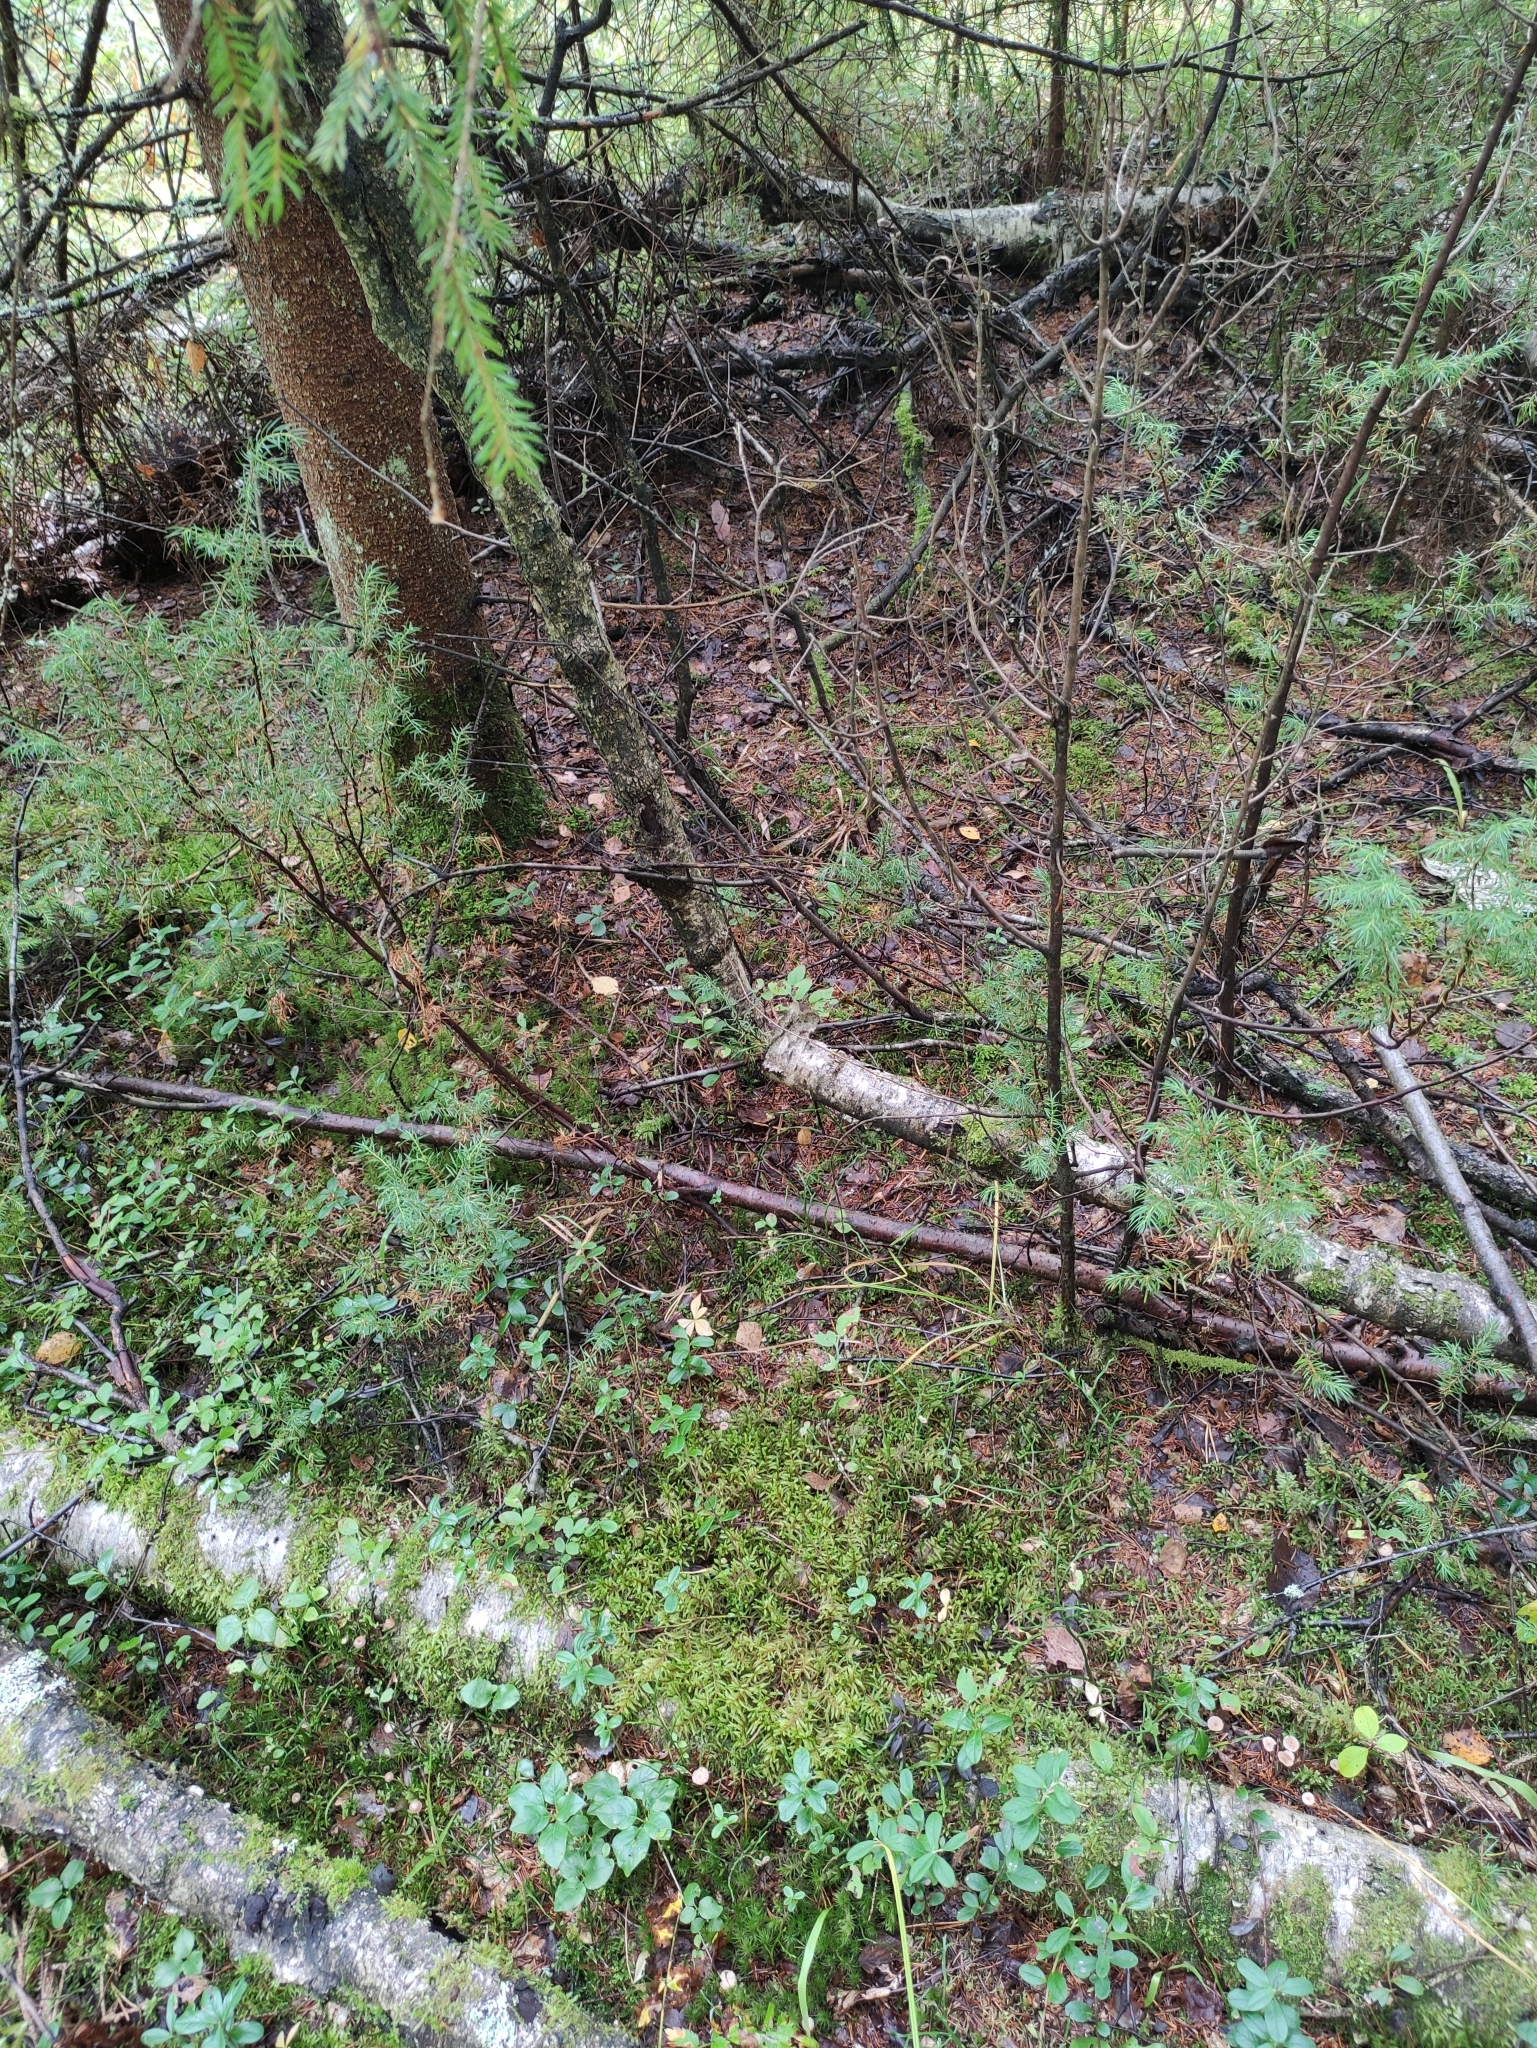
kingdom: Plantae
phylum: Tracheophyta
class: Pinopsida
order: Pinales
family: Cupressaceae
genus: Juniperus
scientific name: Juniperus communis
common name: Common juniper
